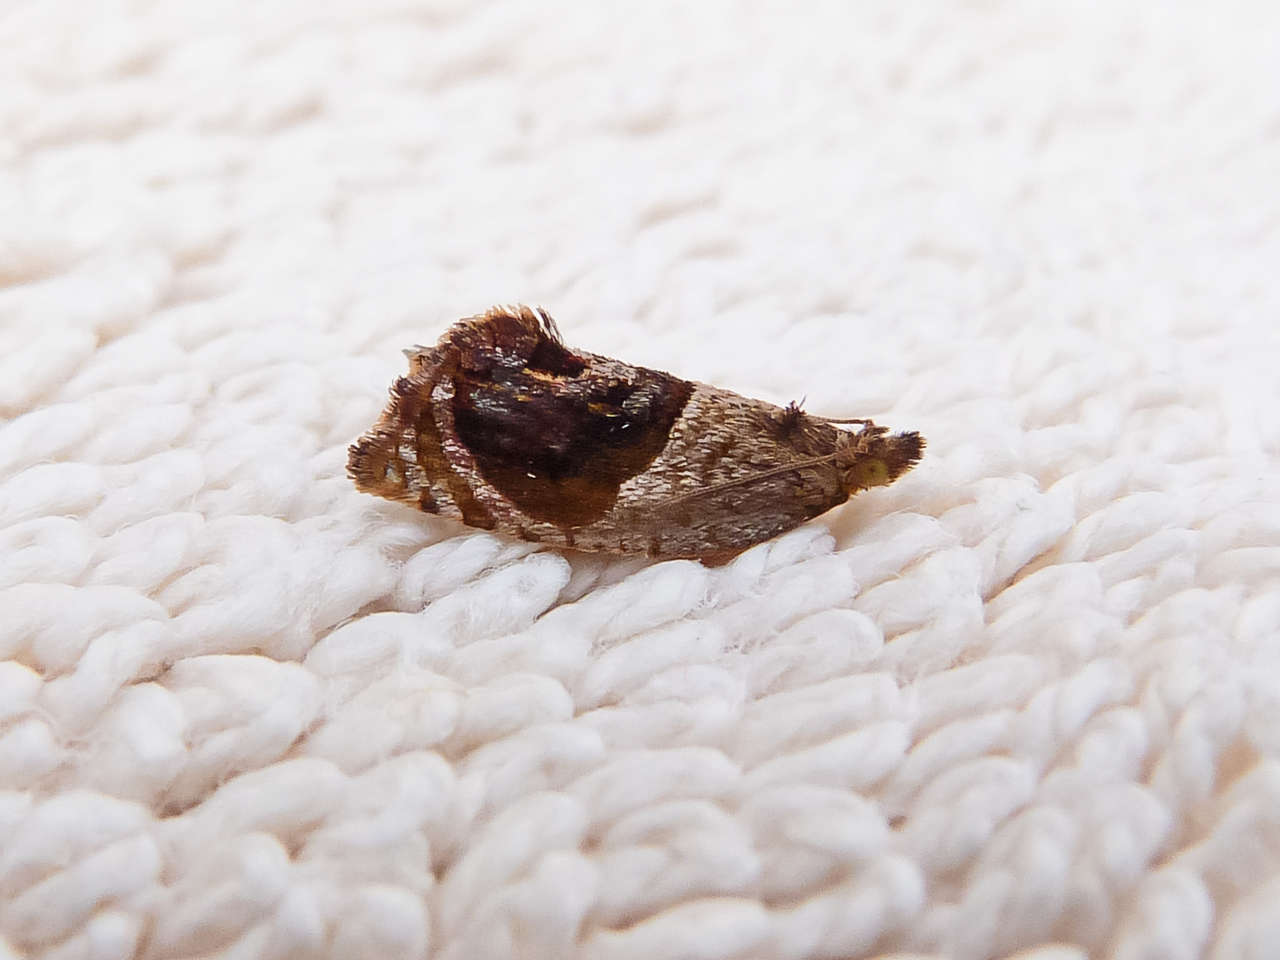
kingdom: Animalia
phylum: Arthropoda
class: Insecta
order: Lepidoptera
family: Tortricidae
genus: Acroceuthes
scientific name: Acroceuthes metaxanthana
